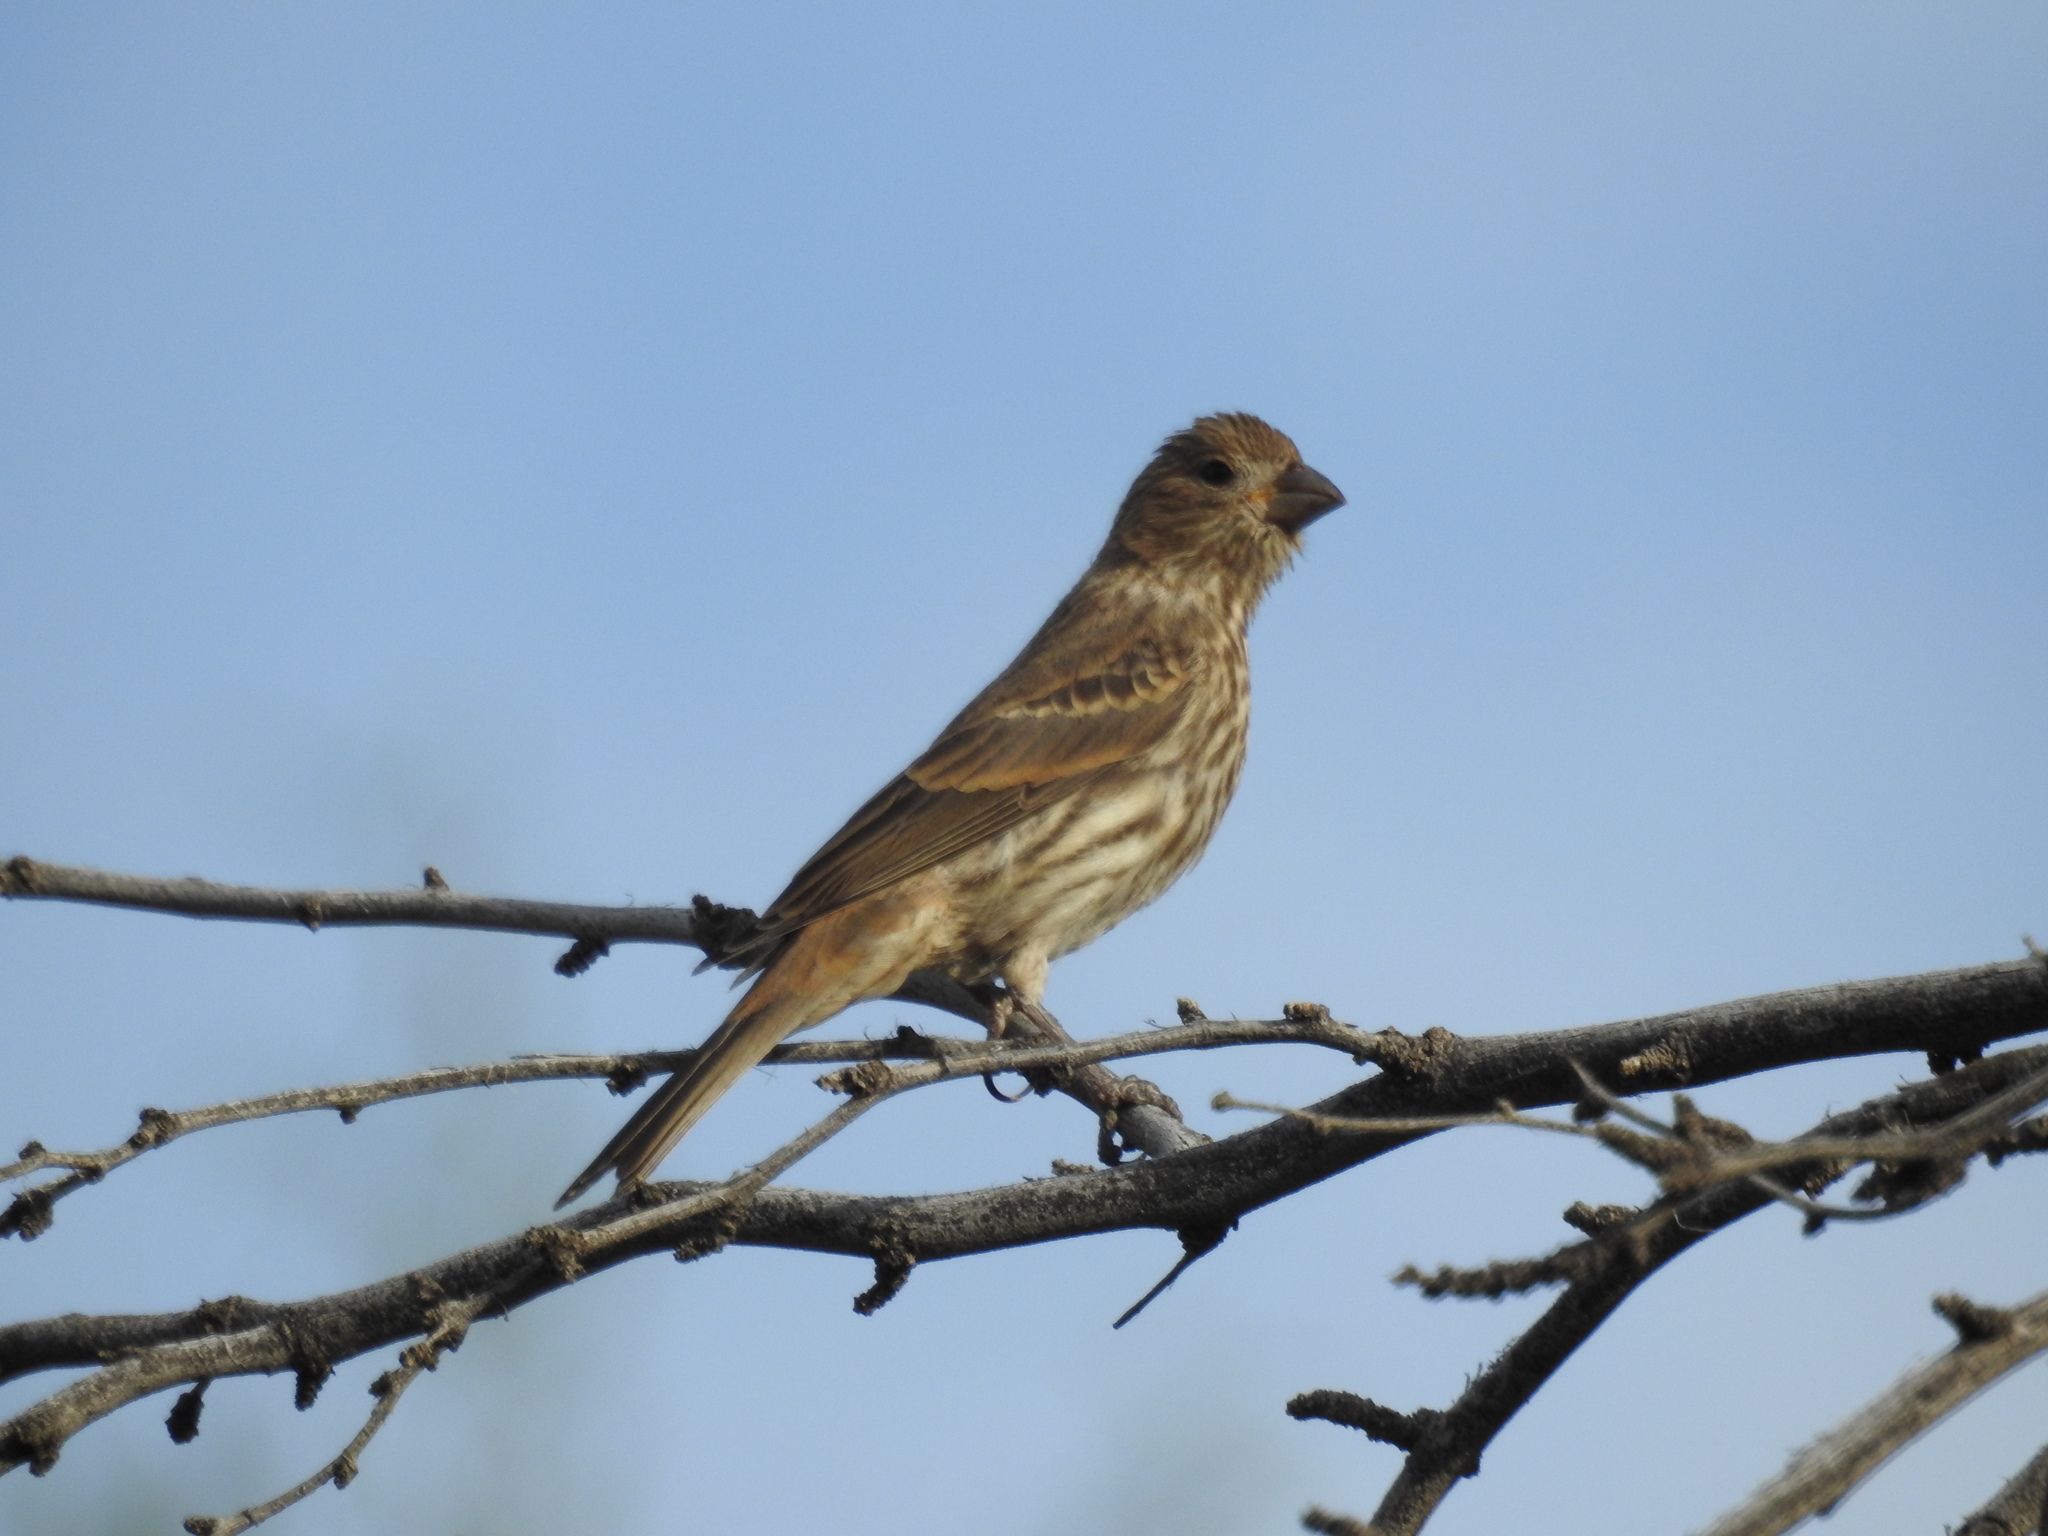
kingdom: Animalia
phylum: Chordata
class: Aves
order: Passeriformes
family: Fringillidae
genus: Haemorhous
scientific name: Haemorhous mexicanus
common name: House finch
